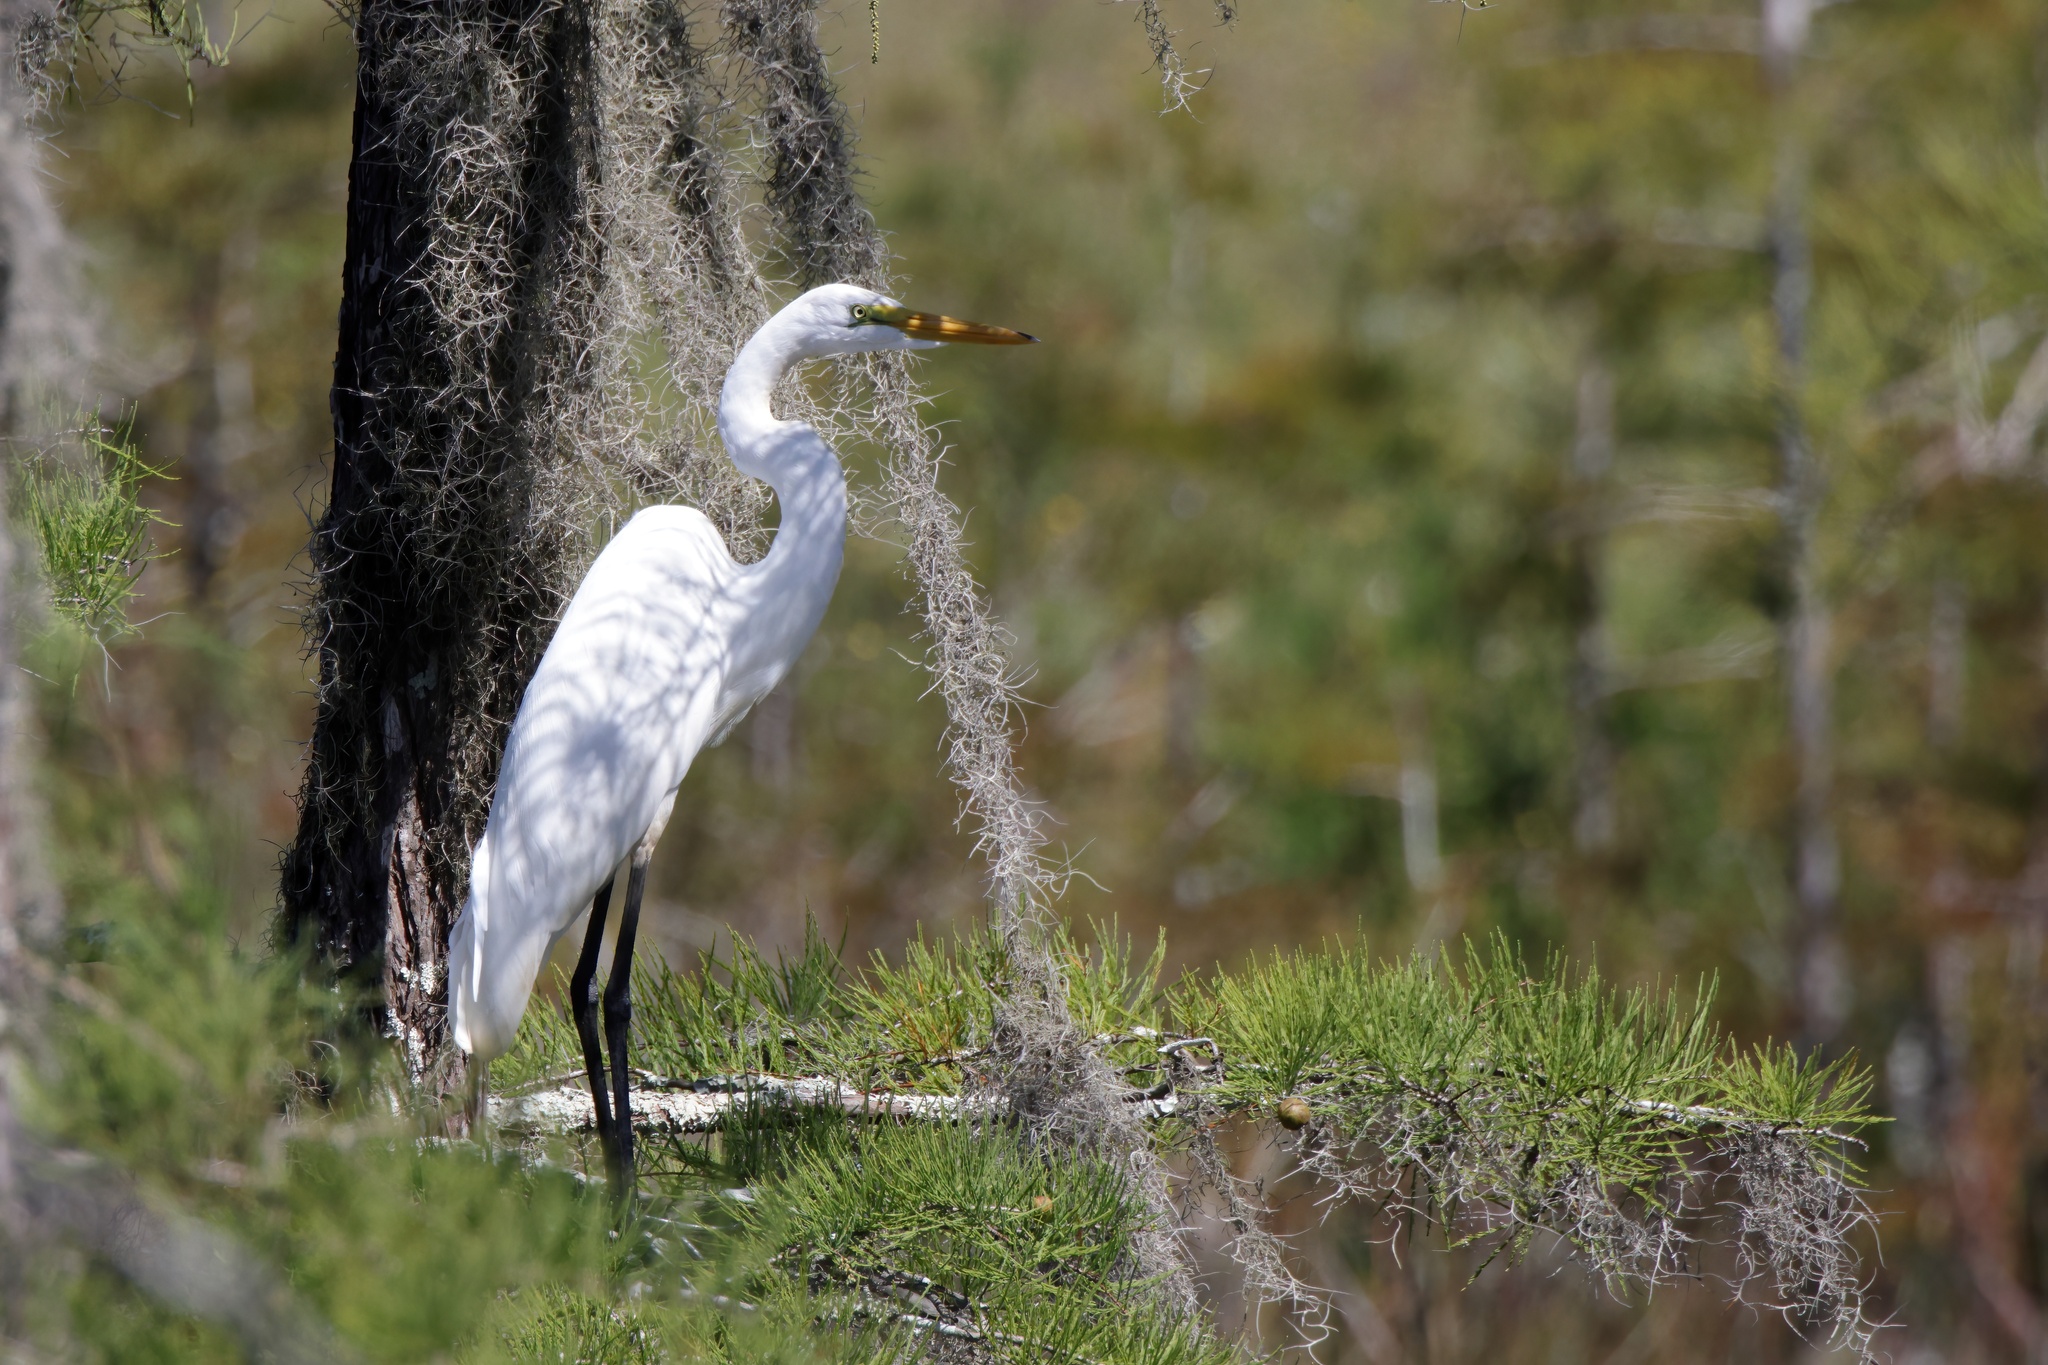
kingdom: Animalia
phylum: Chordata
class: Aves
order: Pelecaniformes
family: Ardeidae
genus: Ardea
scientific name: Ardea alba
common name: Great egret
